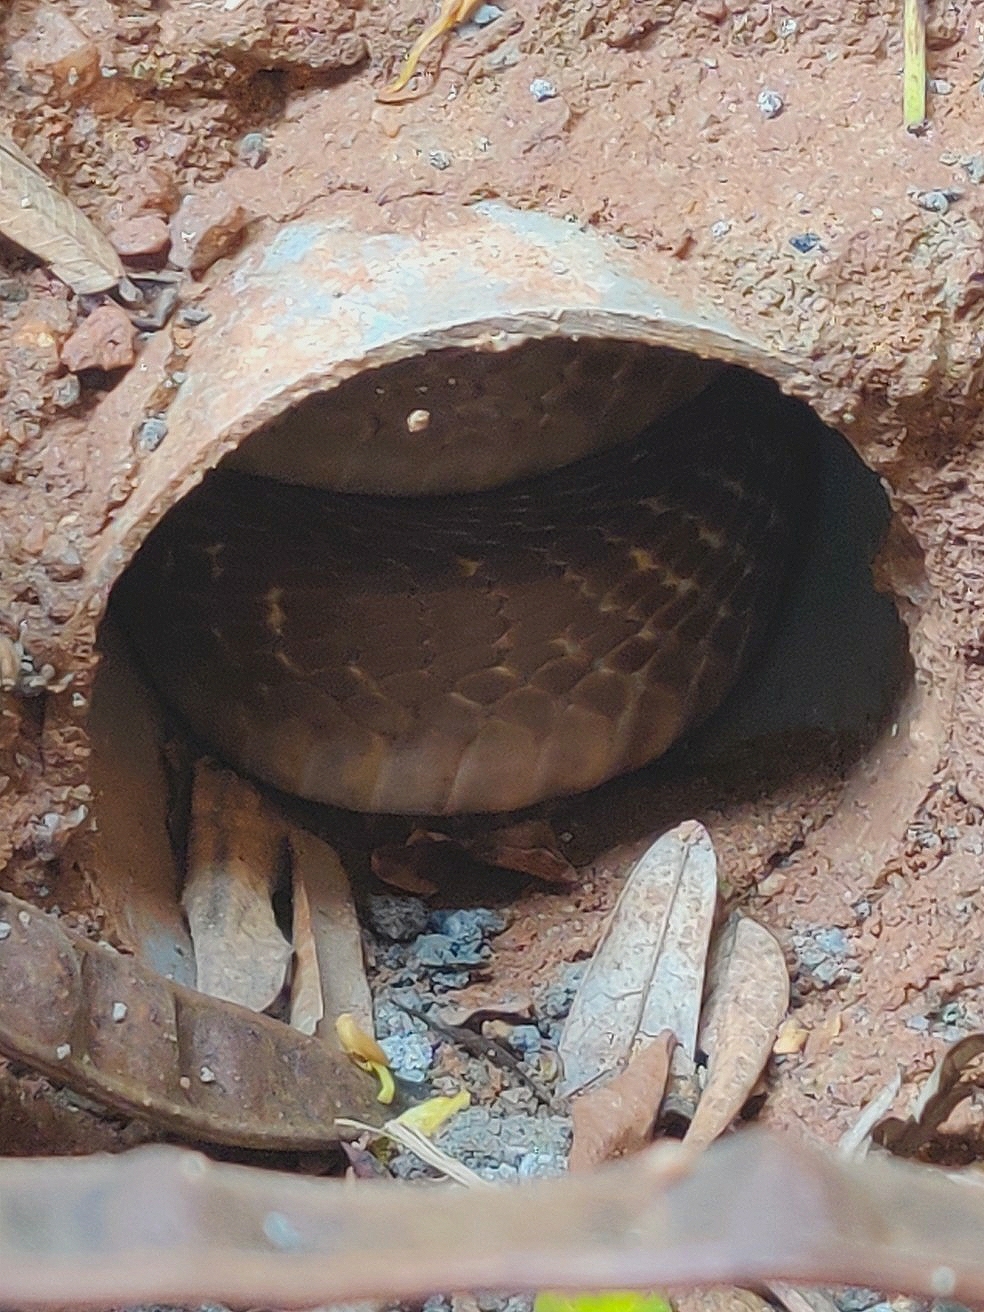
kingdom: Animalia
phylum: Chordata
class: Squamata
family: Elapidae
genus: Naja
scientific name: Naja naja
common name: Indian cobra
